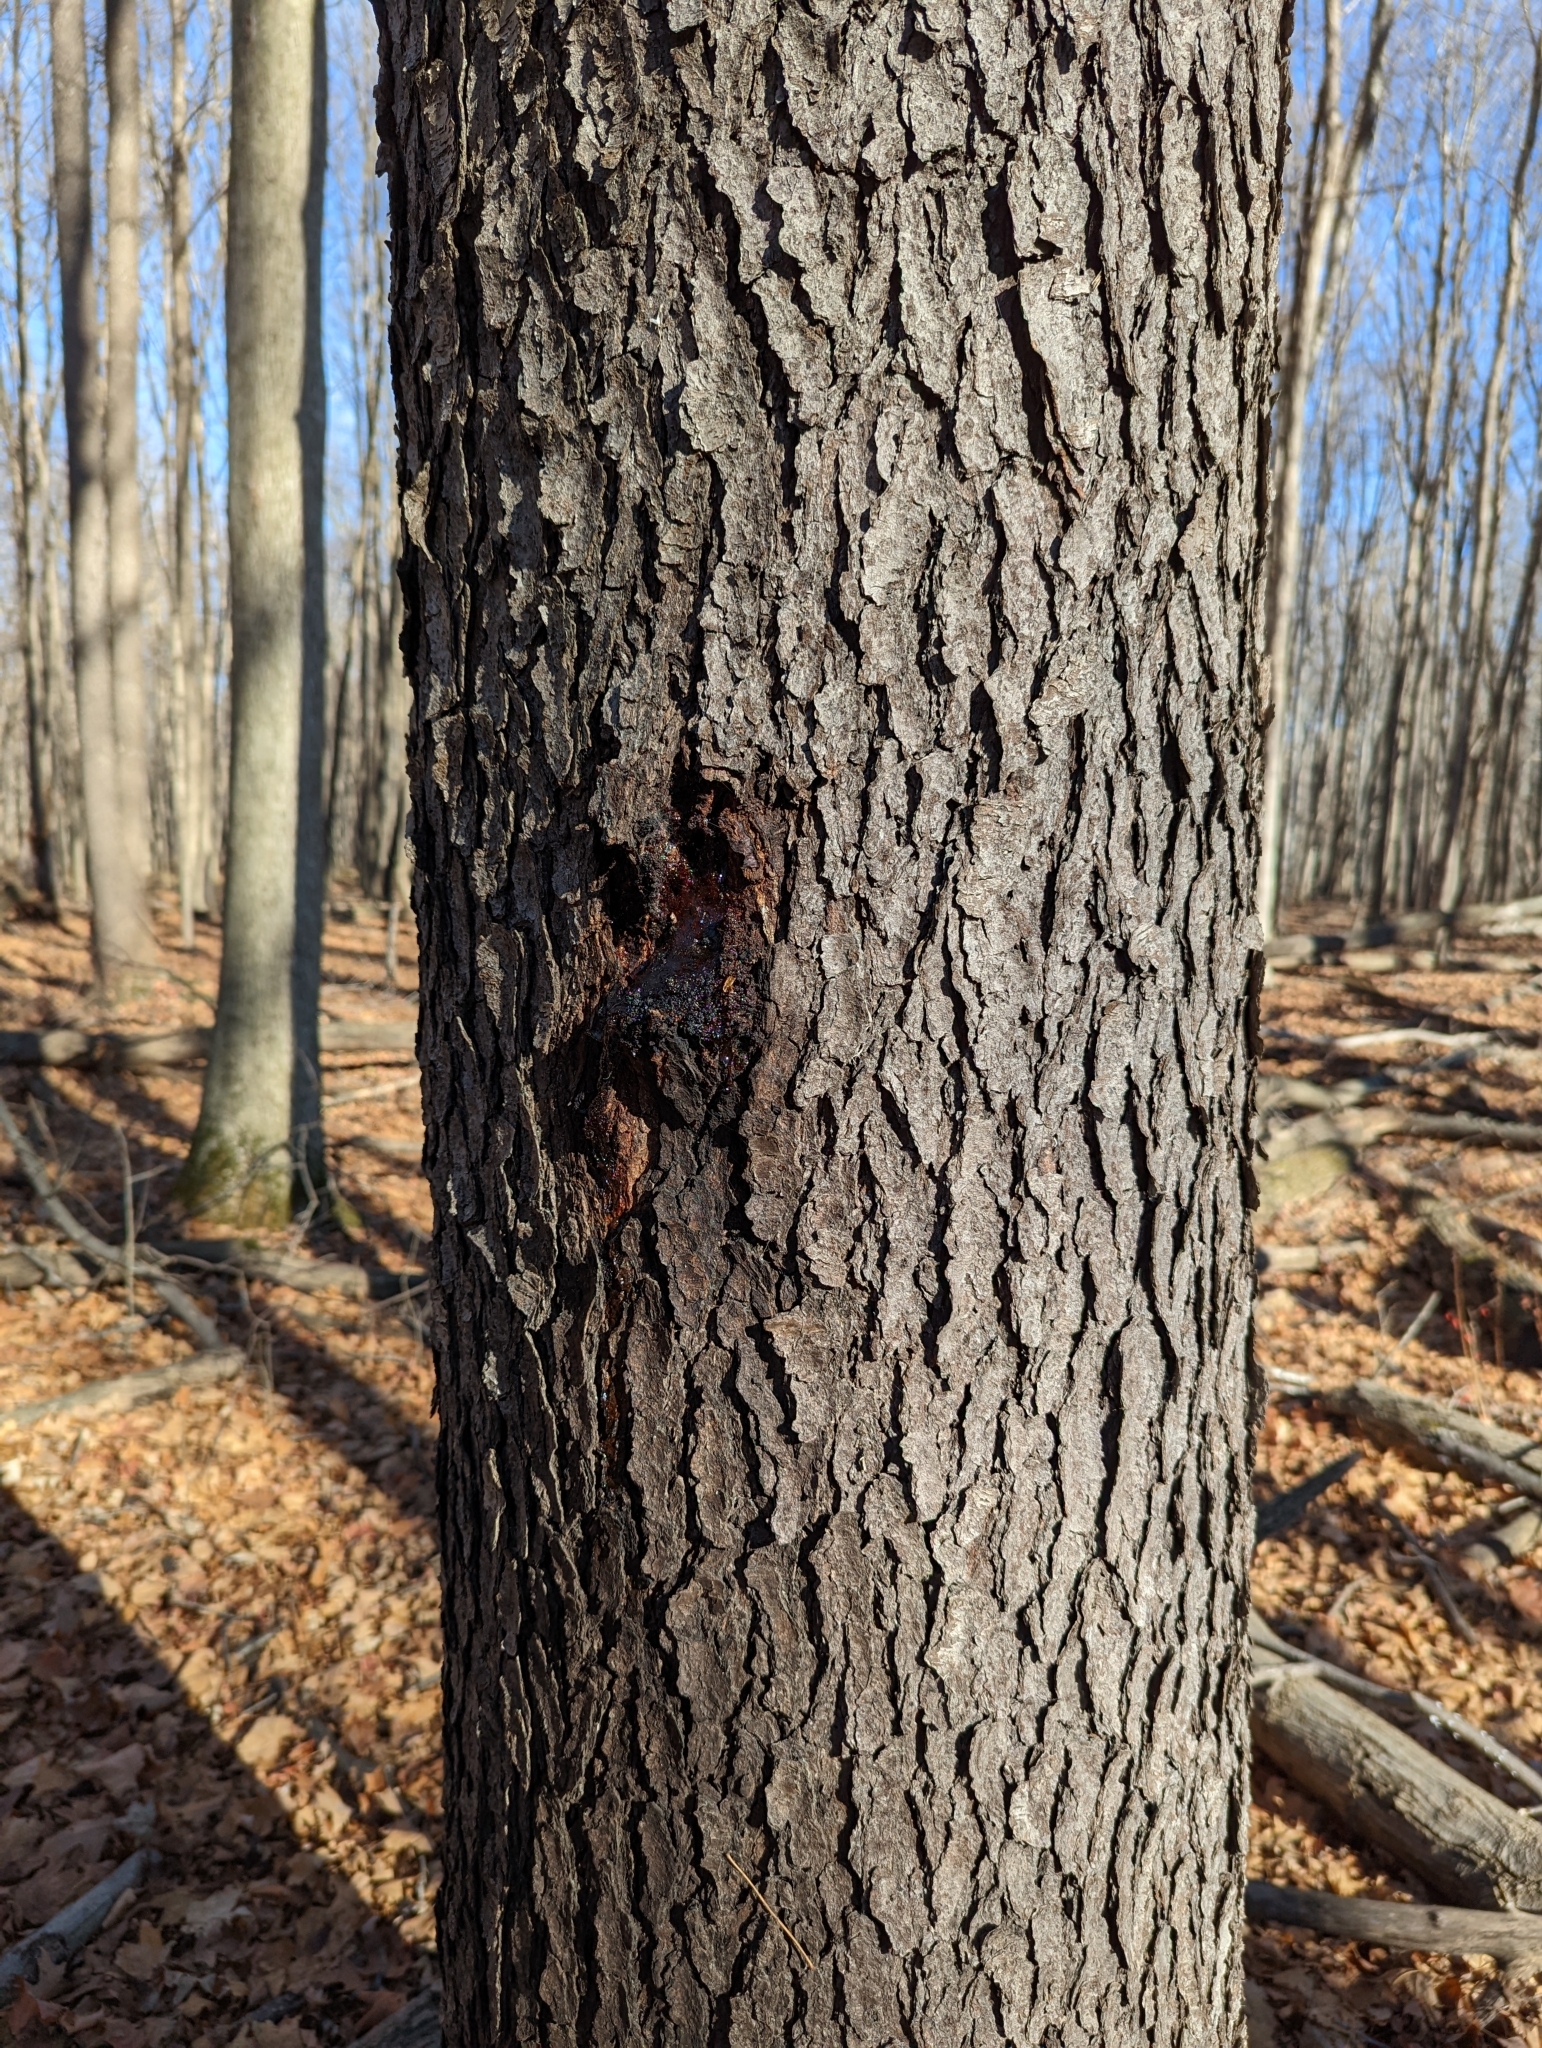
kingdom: Plantae
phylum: Tracheophyta
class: Magnoliopsida
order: Rosales
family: Rosaceae
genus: Prunus
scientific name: Prunus serotina
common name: Black cherry
